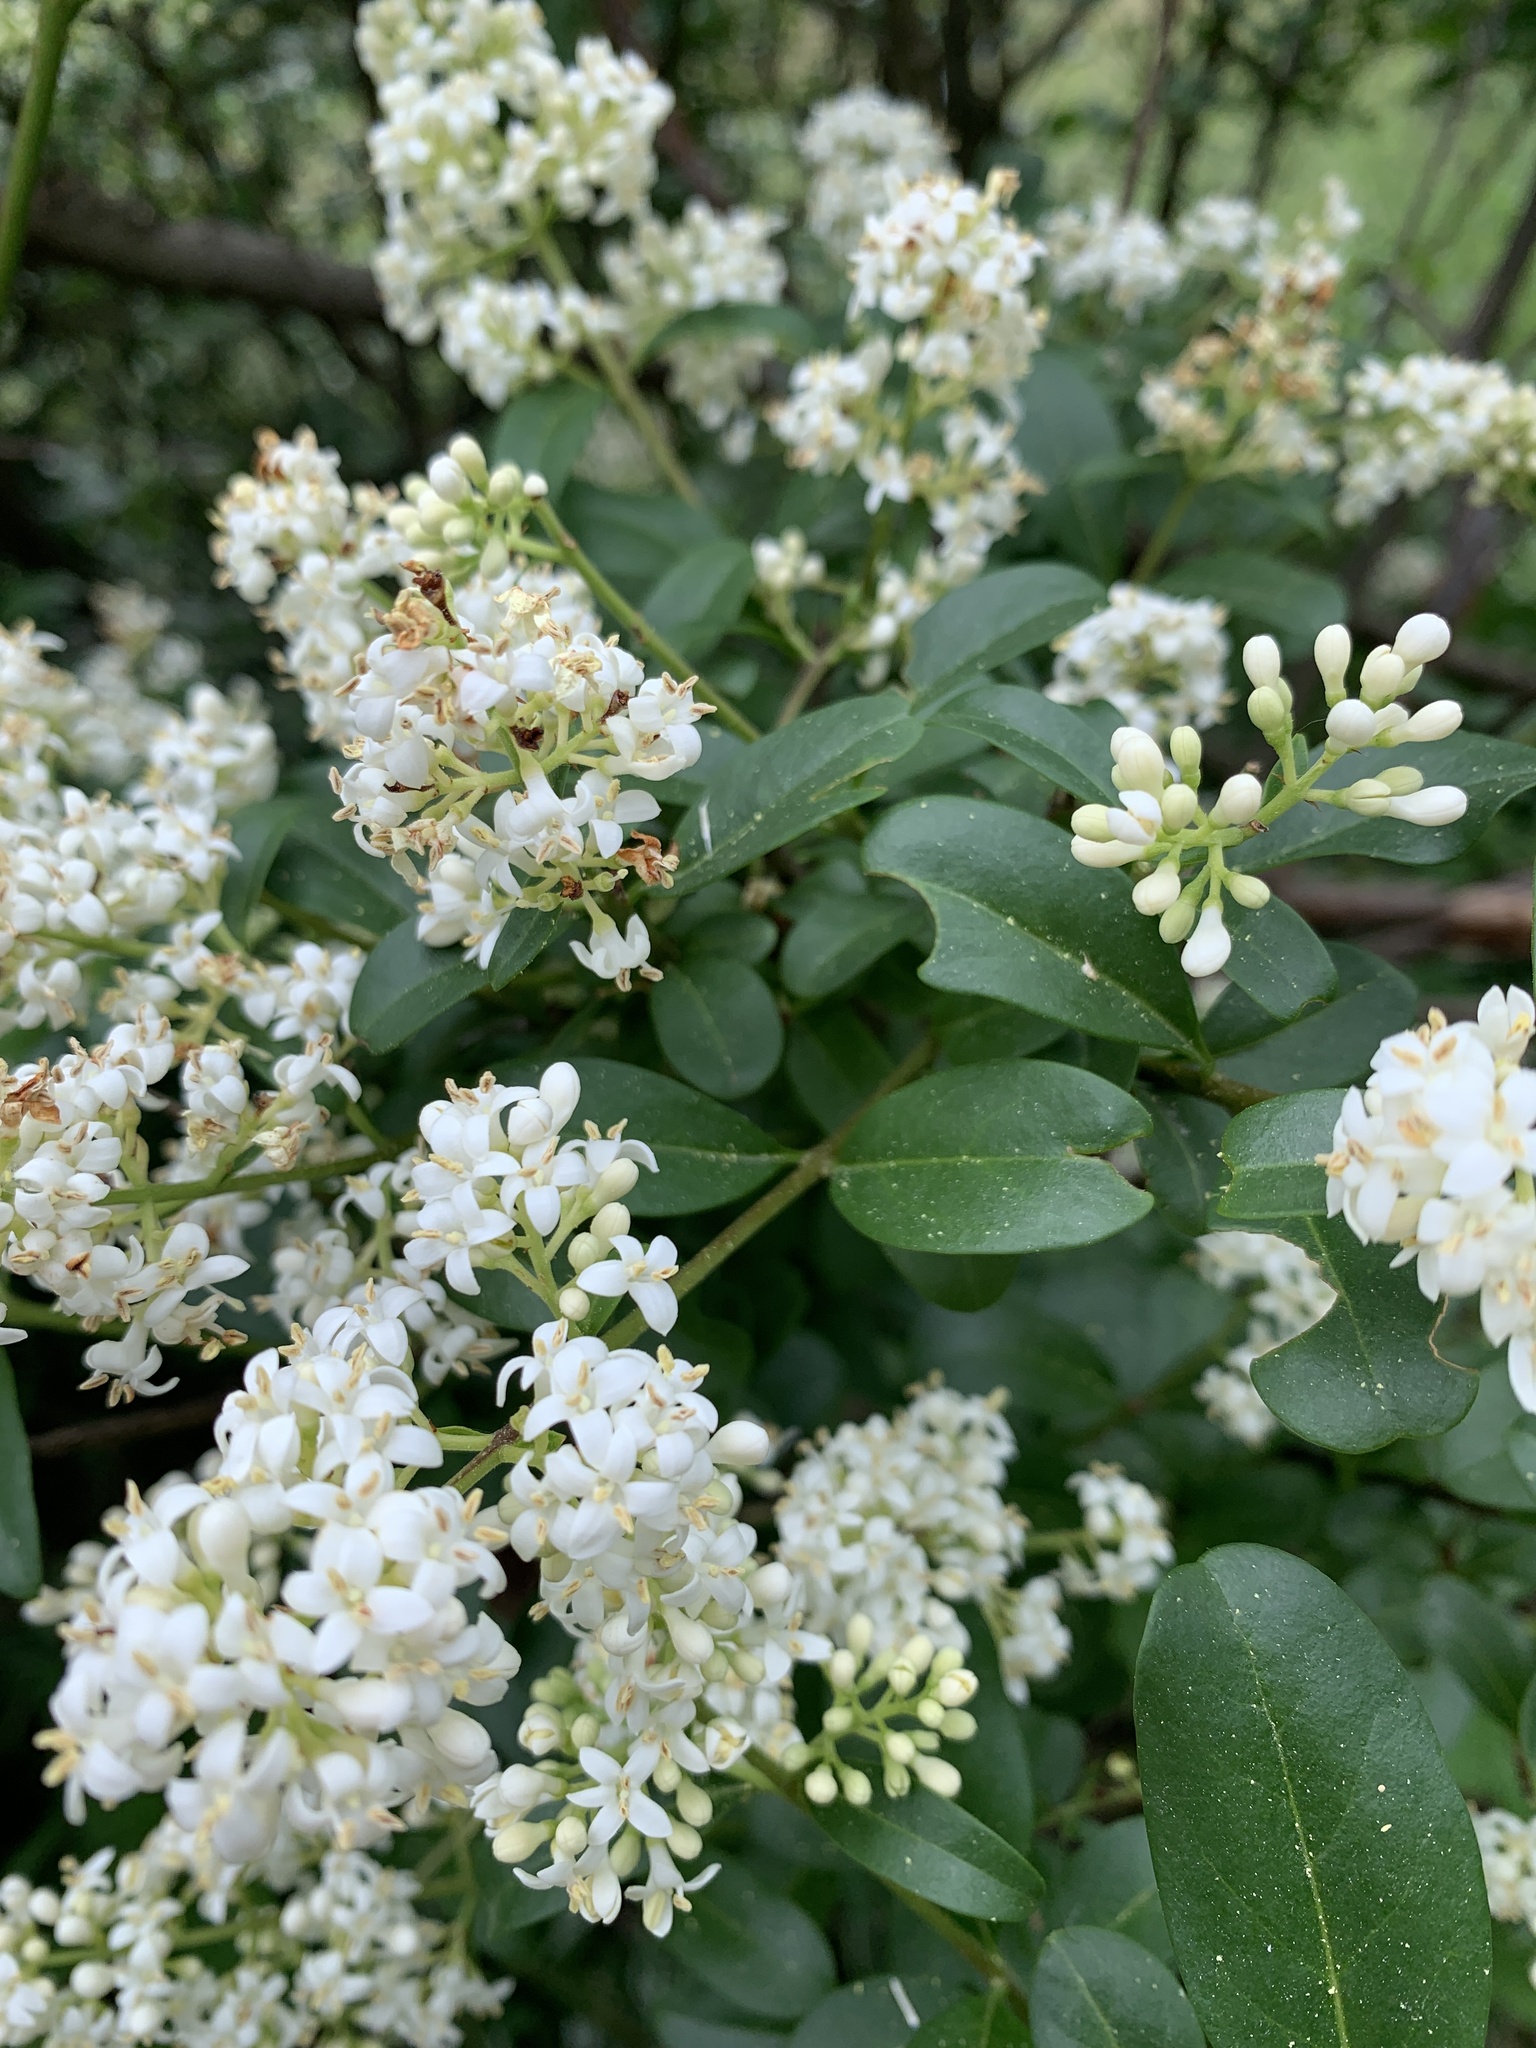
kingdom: Plantae
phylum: Tracheophyta
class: Magnoliopsida
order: Lamiales
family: Oleaceae
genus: Ligustrum
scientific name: Ligustrum vulgare
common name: Wild privet
